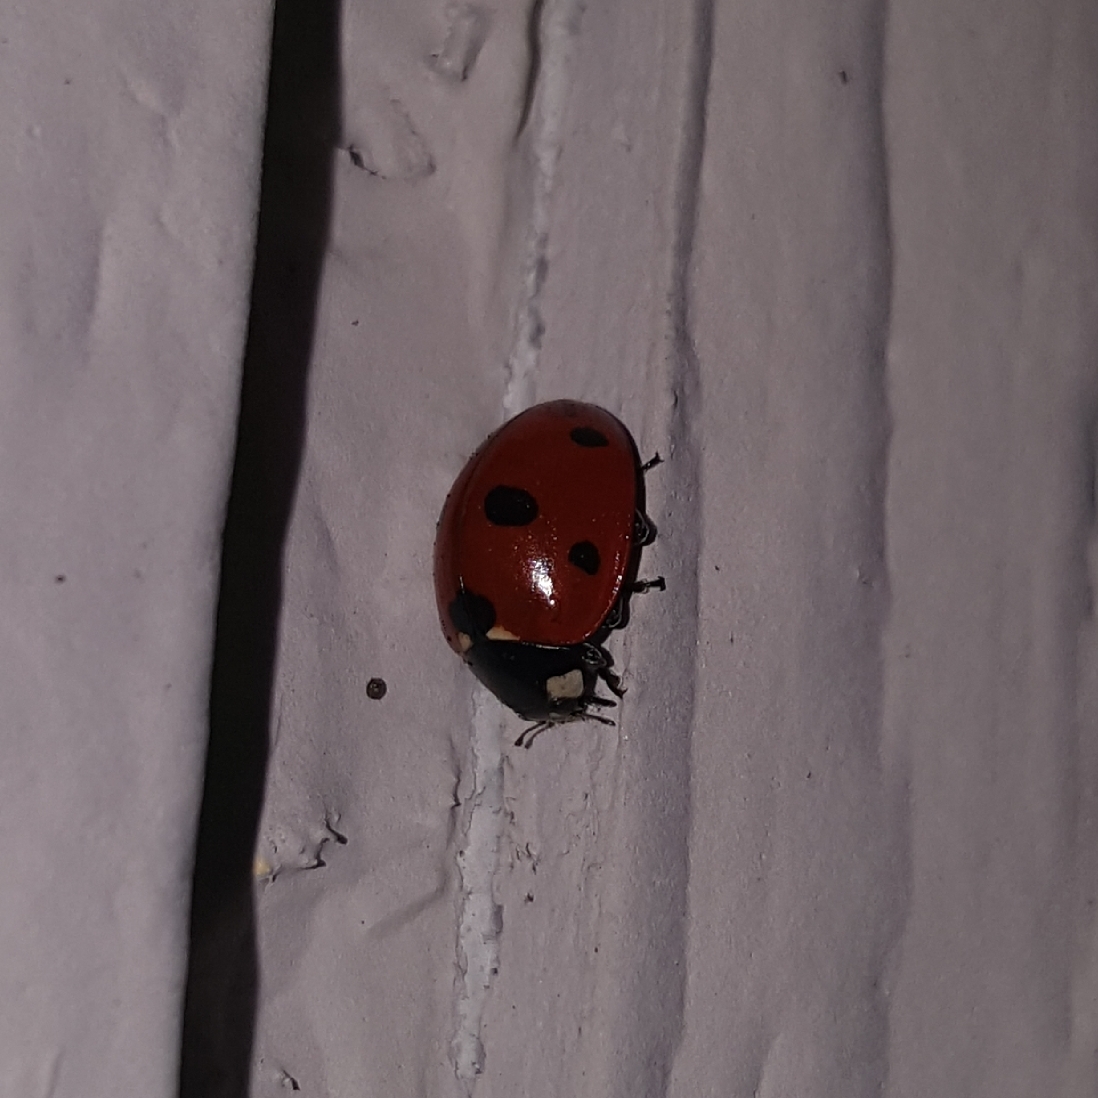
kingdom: Animalia
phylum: Arthropoda
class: Insecta
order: Coleoptera
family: Coccinellidae
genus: Coccinella
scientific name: Coccinella septempunctata
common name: Sevenspotted lady beetle
